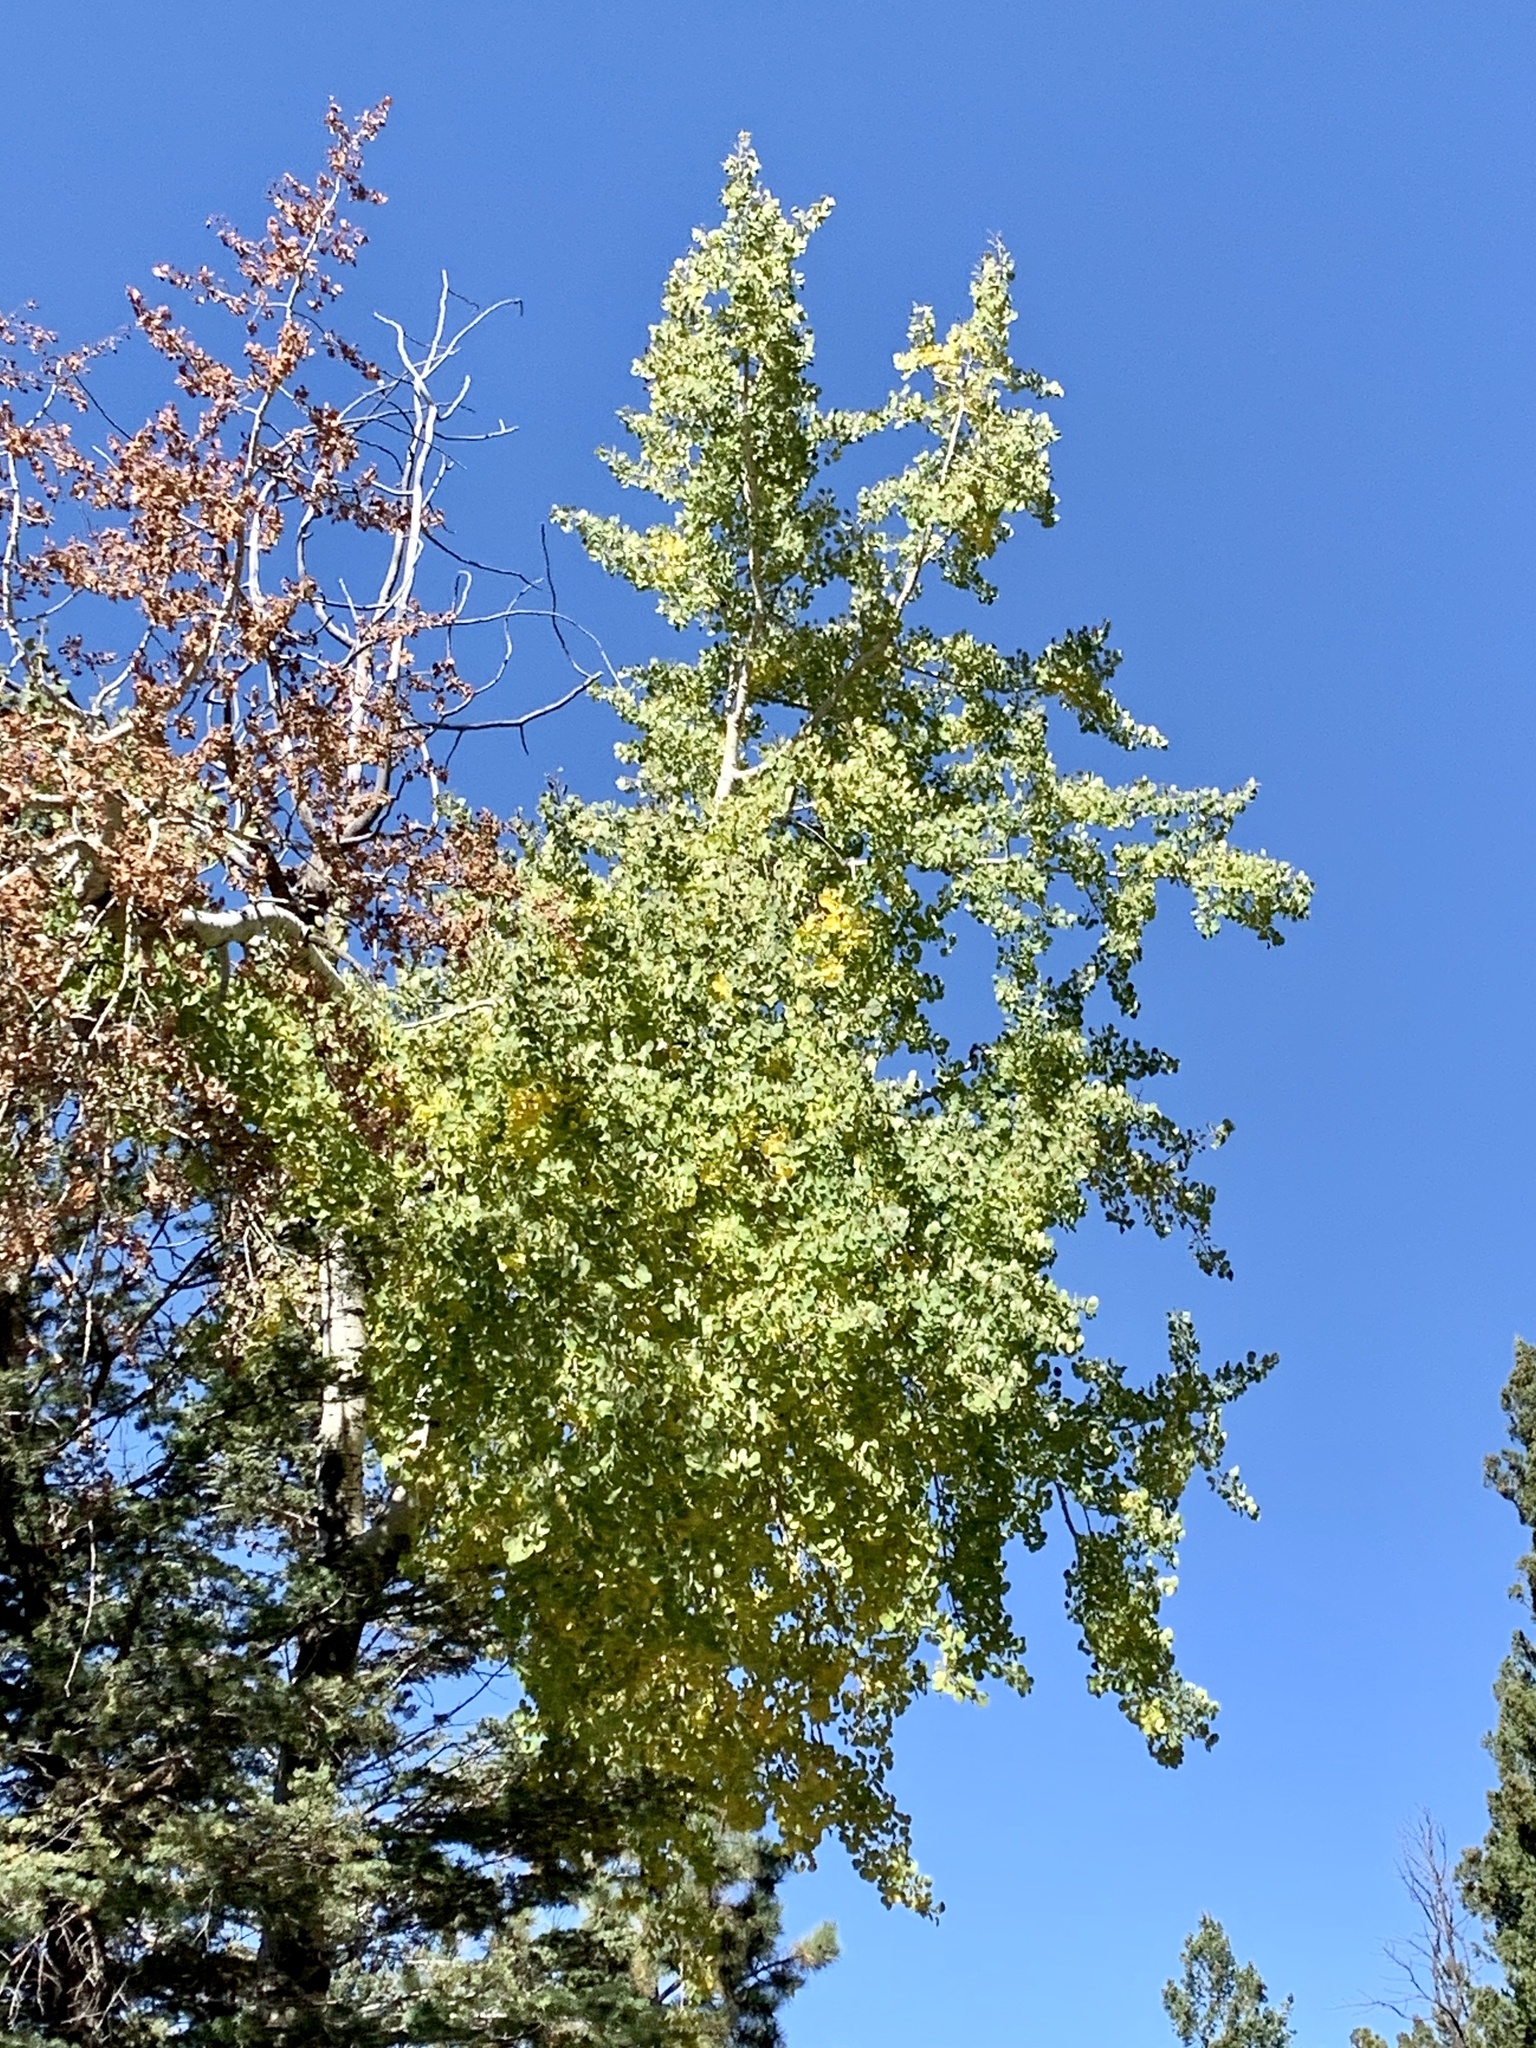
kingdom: Plantae
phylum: Tracheophyta
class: Magnoliopsida
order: Malpighiales
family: Salicaceae
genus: Populus
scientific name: Populus tremuloides
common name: Quaking aspen
